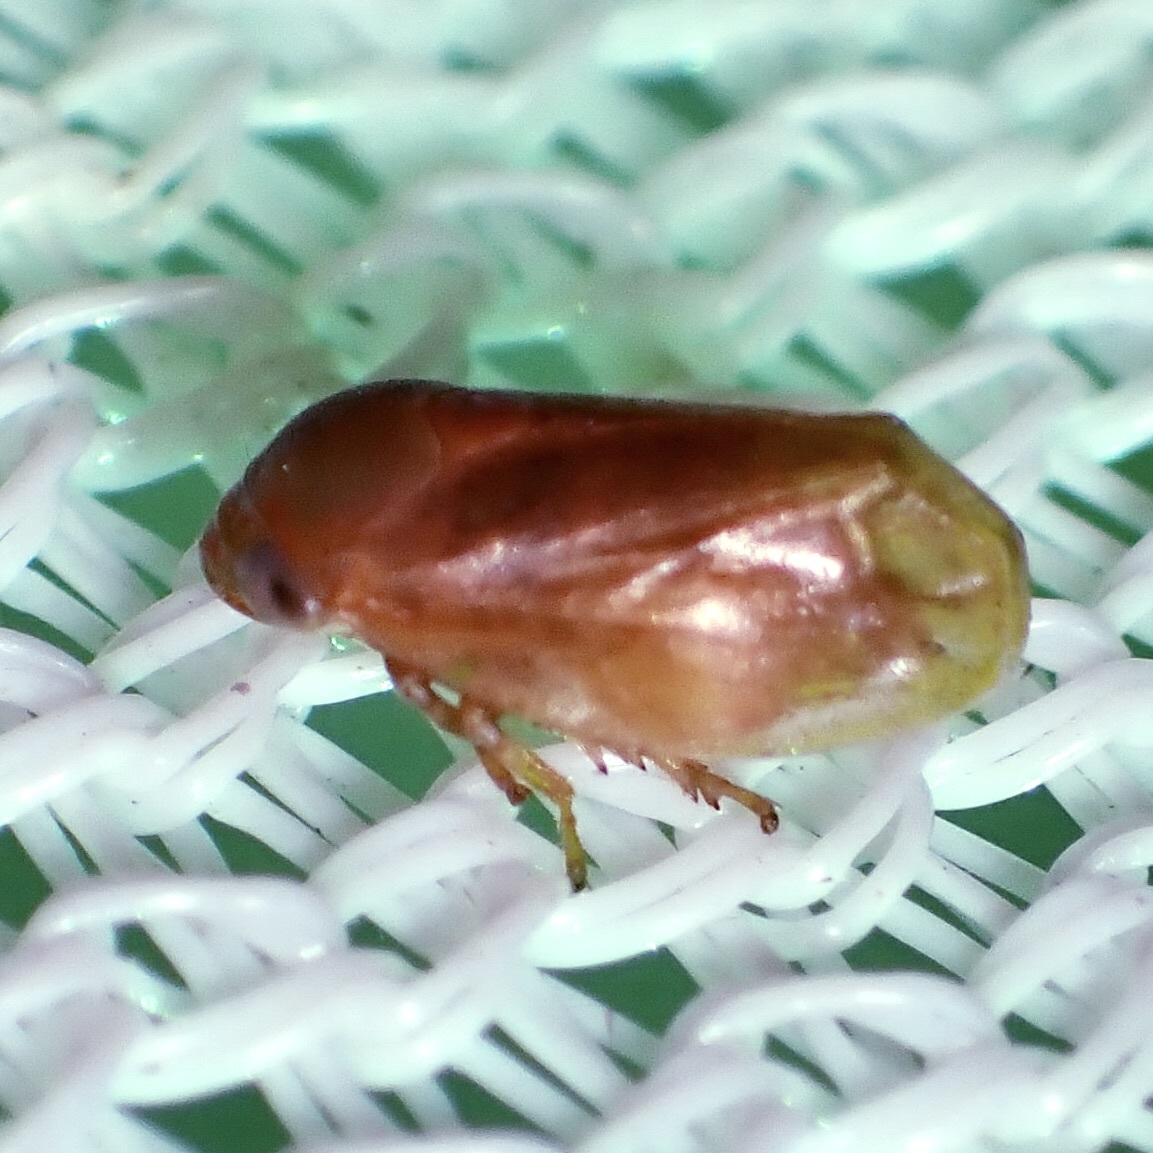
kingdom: Animalia
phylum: Arthropoda
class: Insecta
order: Hemiptera
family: Clastopteridae
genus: Clastoptera
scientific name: Clastoptera osborni
